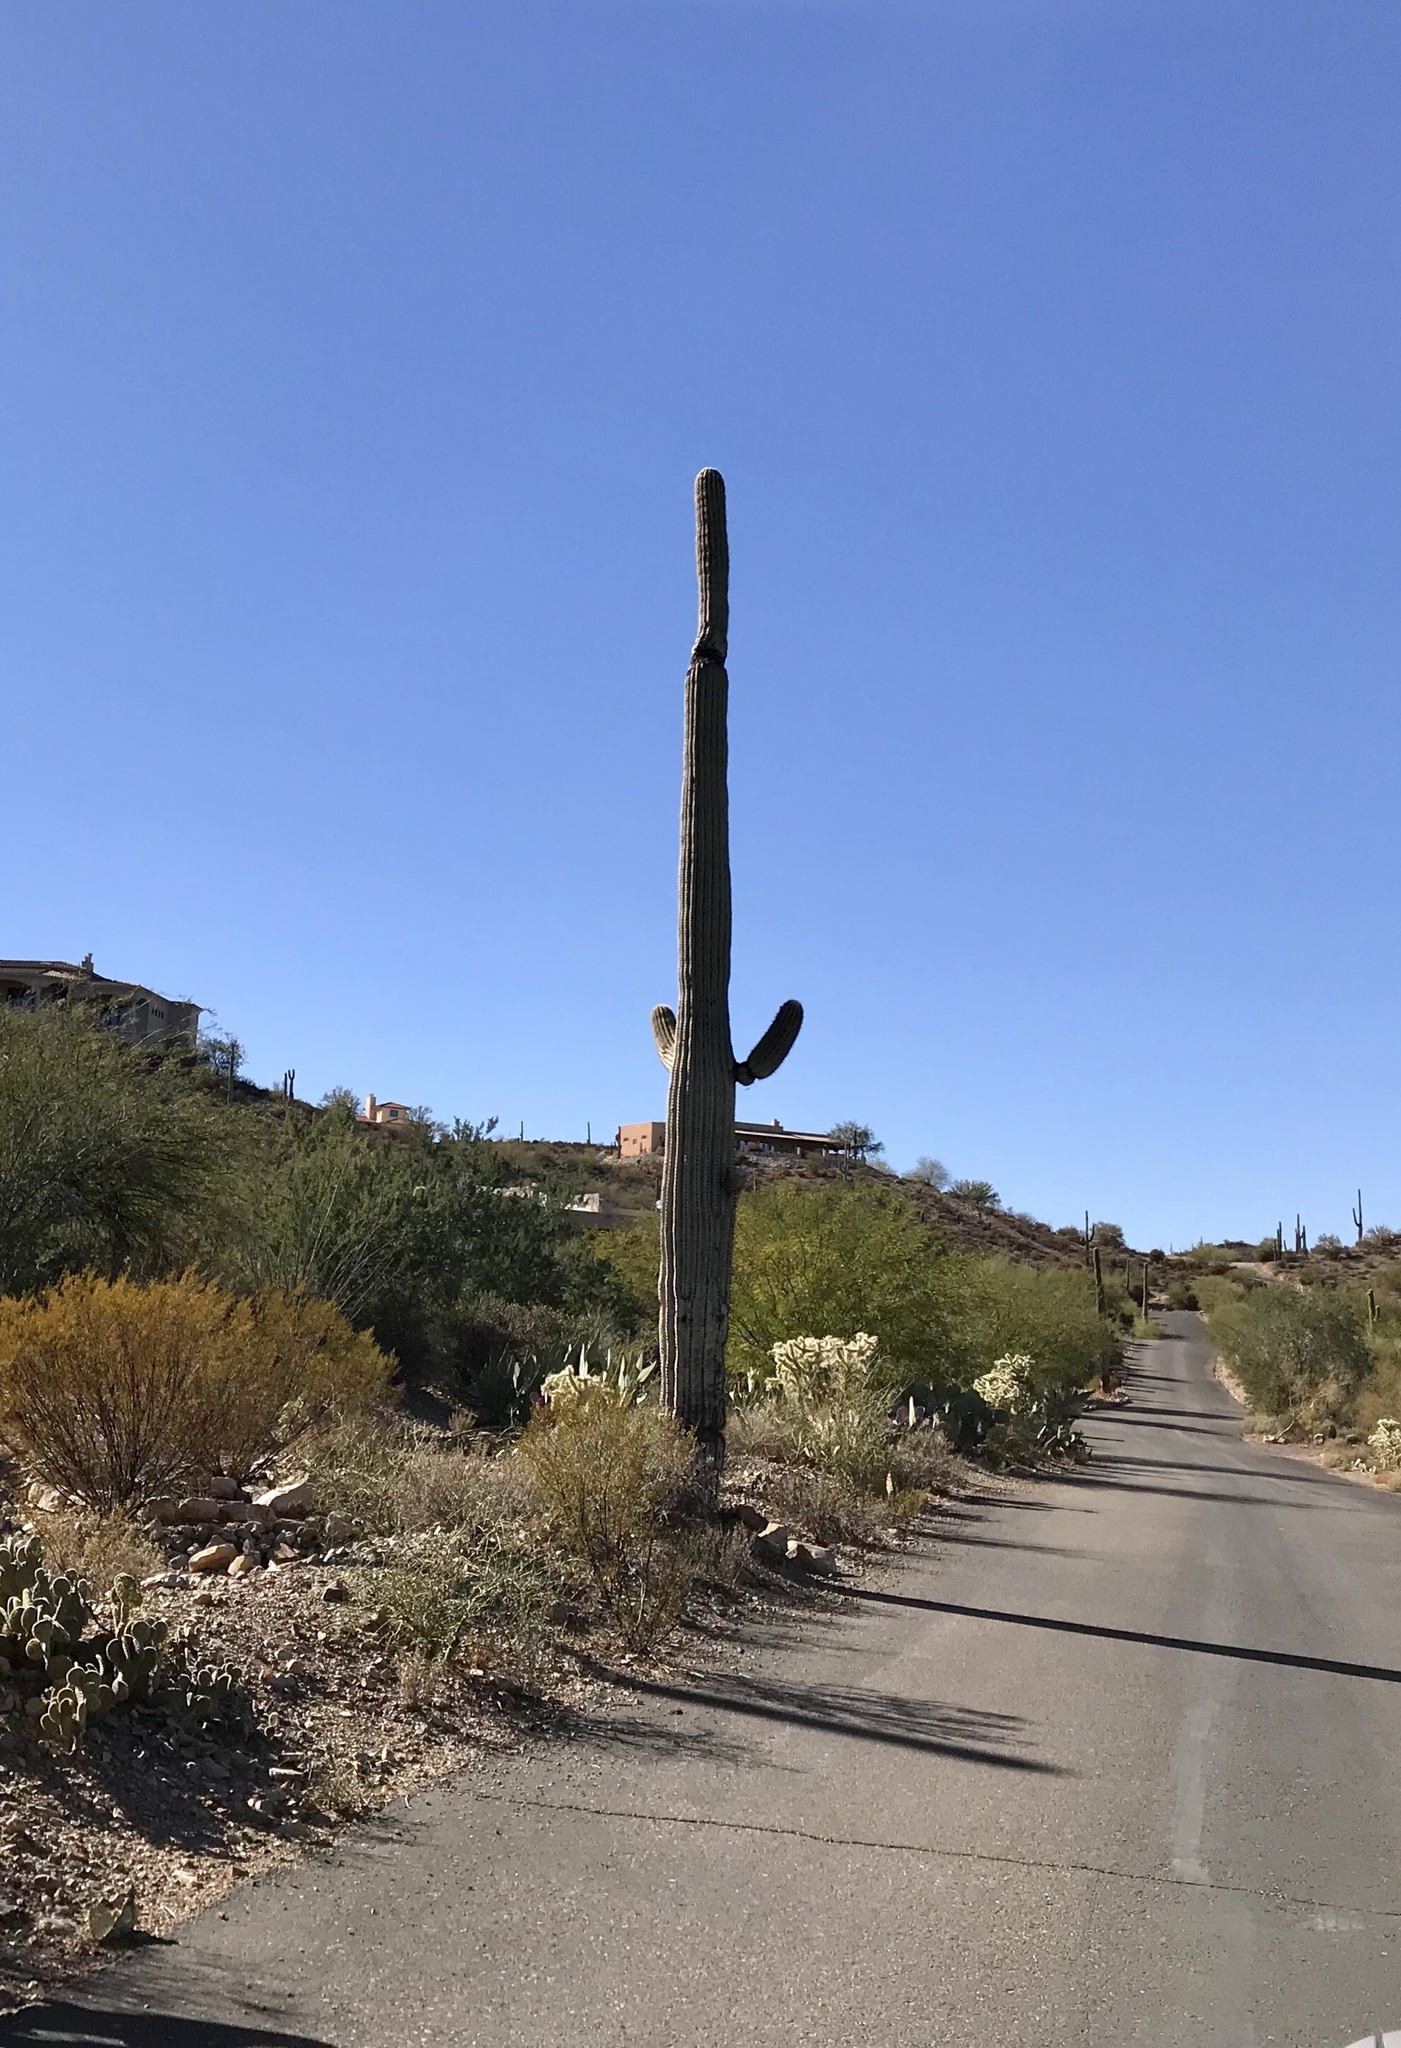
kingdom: Plantae
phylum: Tracheophyta
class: Magnoliopsida
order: Caryophyllales
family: Cactaceae
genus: Carnegiea
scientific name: Carnegiea gigantea
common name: Saguaro
